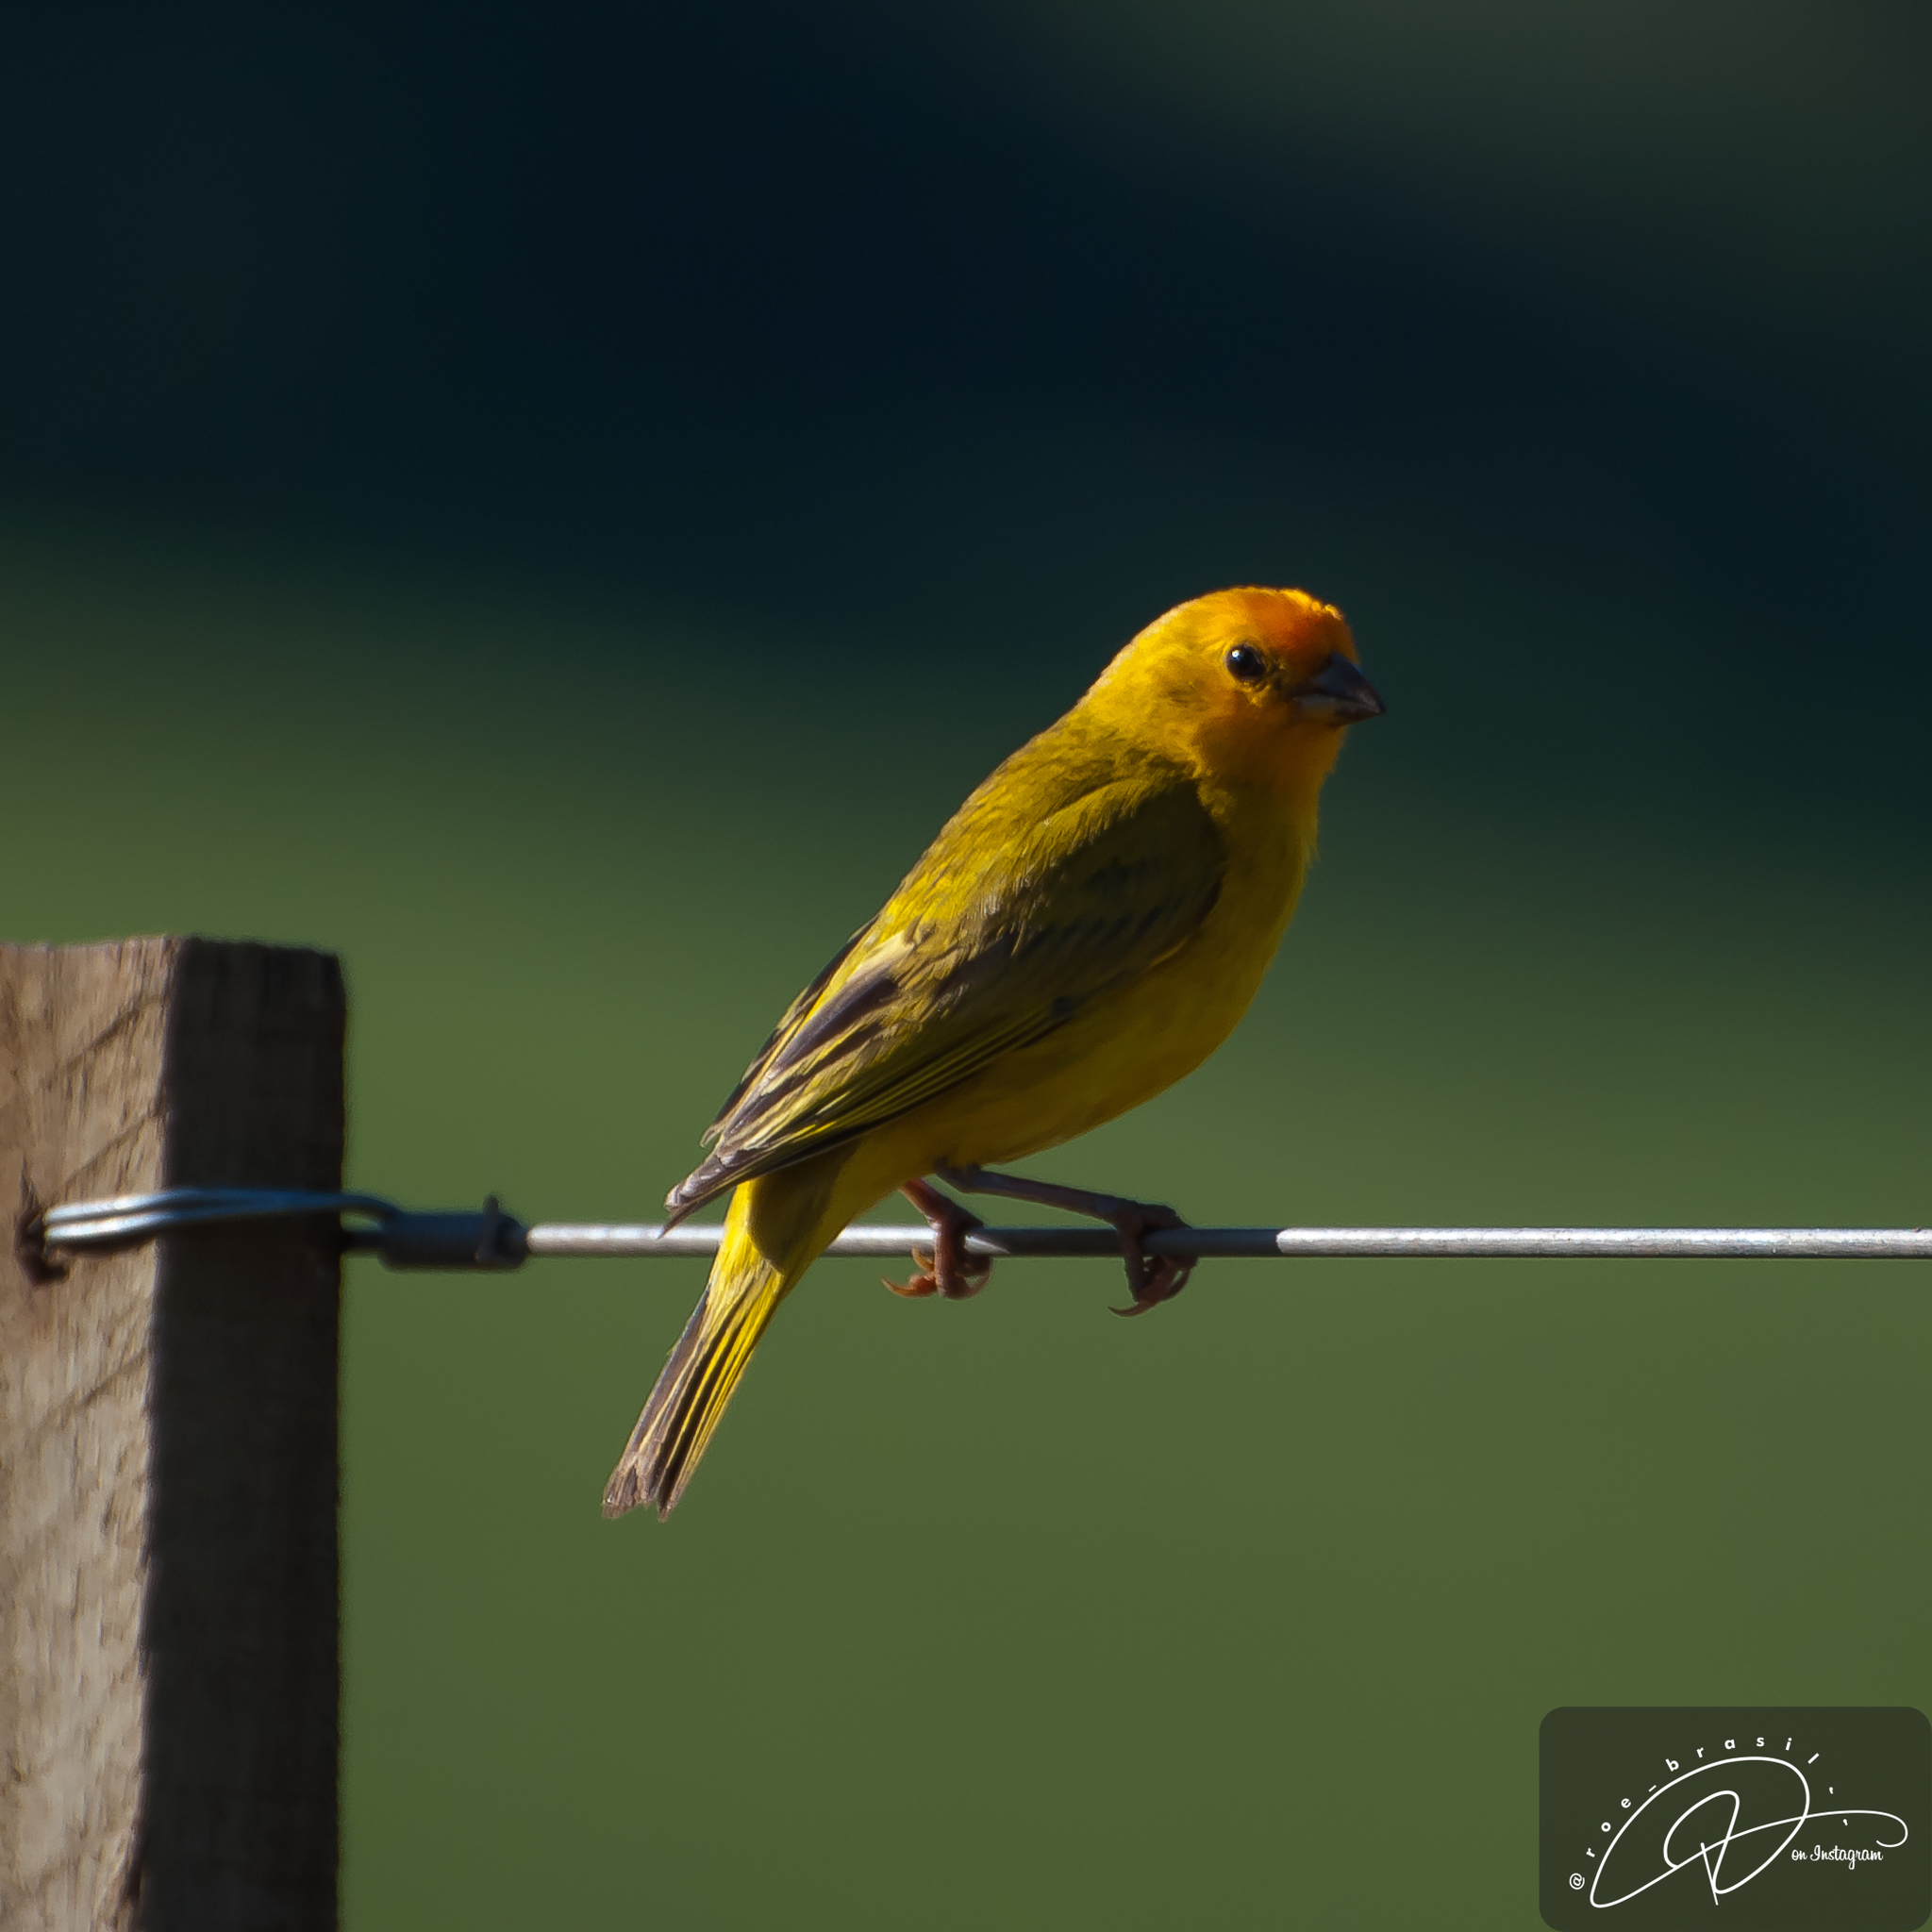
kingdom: Animalia
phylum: Chordata
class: Aves
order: Passeriformes
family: Thraupidae
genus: Sicalis
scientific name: Sicalis flaveola
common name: Saffron finch
